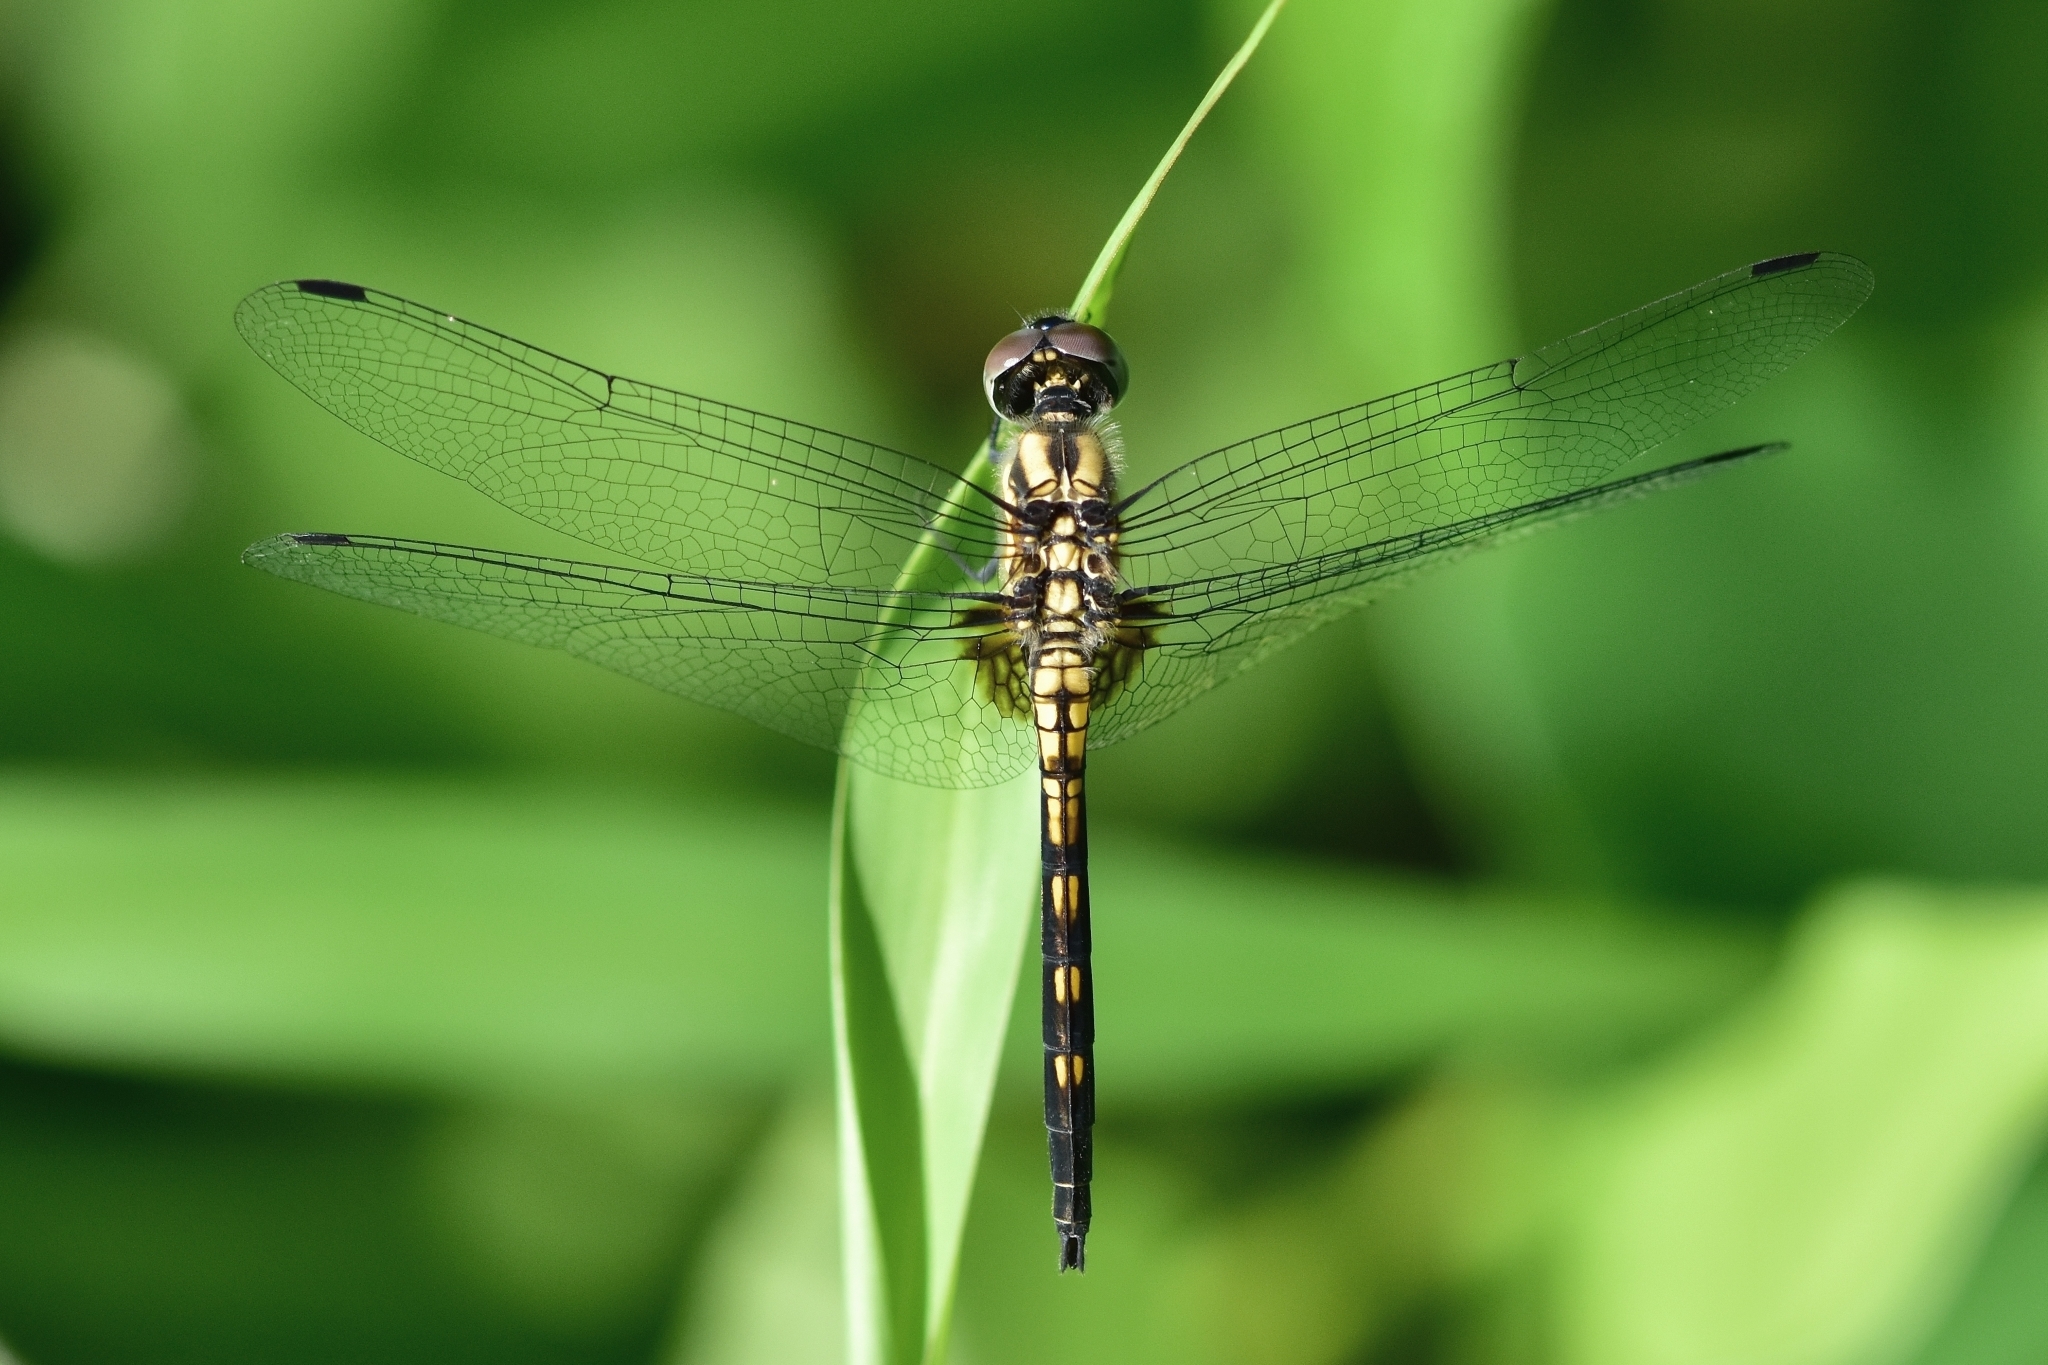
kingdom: Animalia
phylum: Arthropoda
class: Insecta
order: Odonata
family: Libellulidae
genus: Trithemis
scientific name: Trithemis festiva
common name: Indigo dropwing
